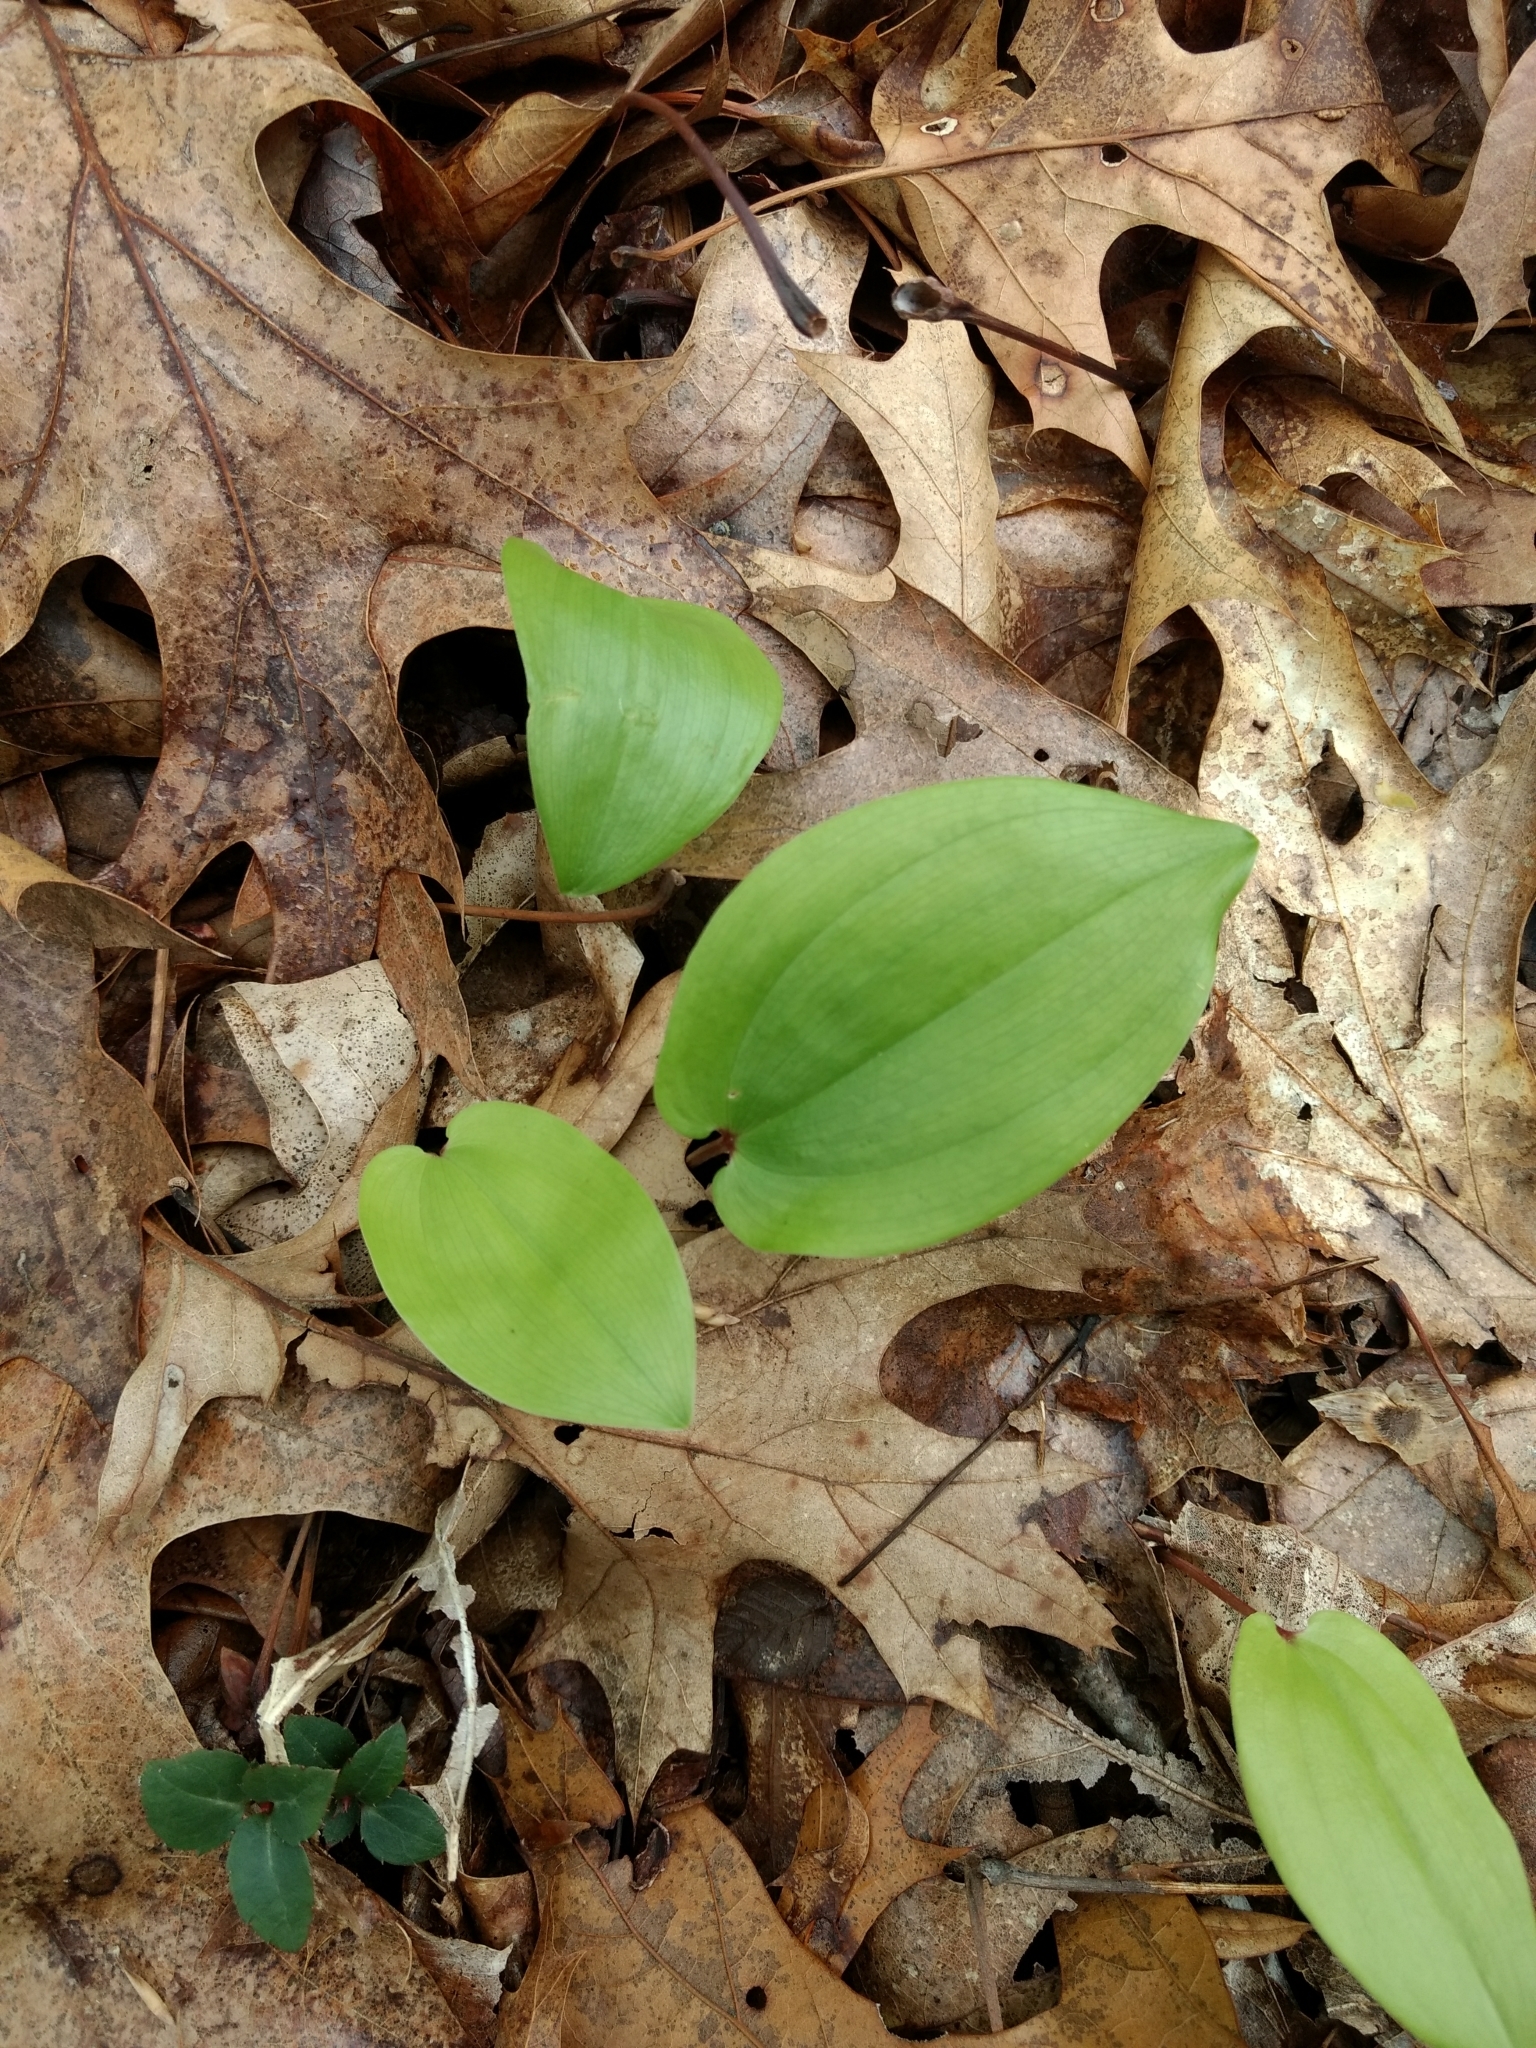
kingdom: Plantae
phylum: Tracheophyta
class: Liliopsida
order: Asparagales
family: Asparagaceae
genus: Maianthemum
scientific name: Maianthemum canadense
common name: False lily-of-the-valley
